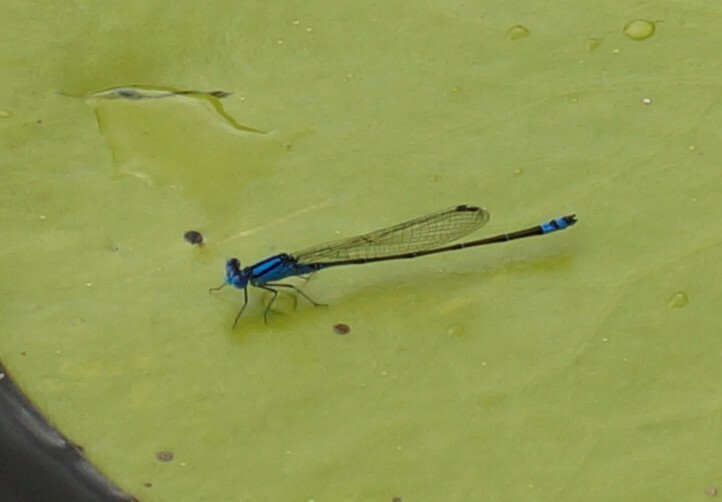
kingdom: Animalia
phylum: Arthropoda
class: Insecta
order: Odonata
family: Coenagrionidae
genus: Pseudagrion
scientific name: Pseudagrion microcephalum
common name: Blue riverdamsel
